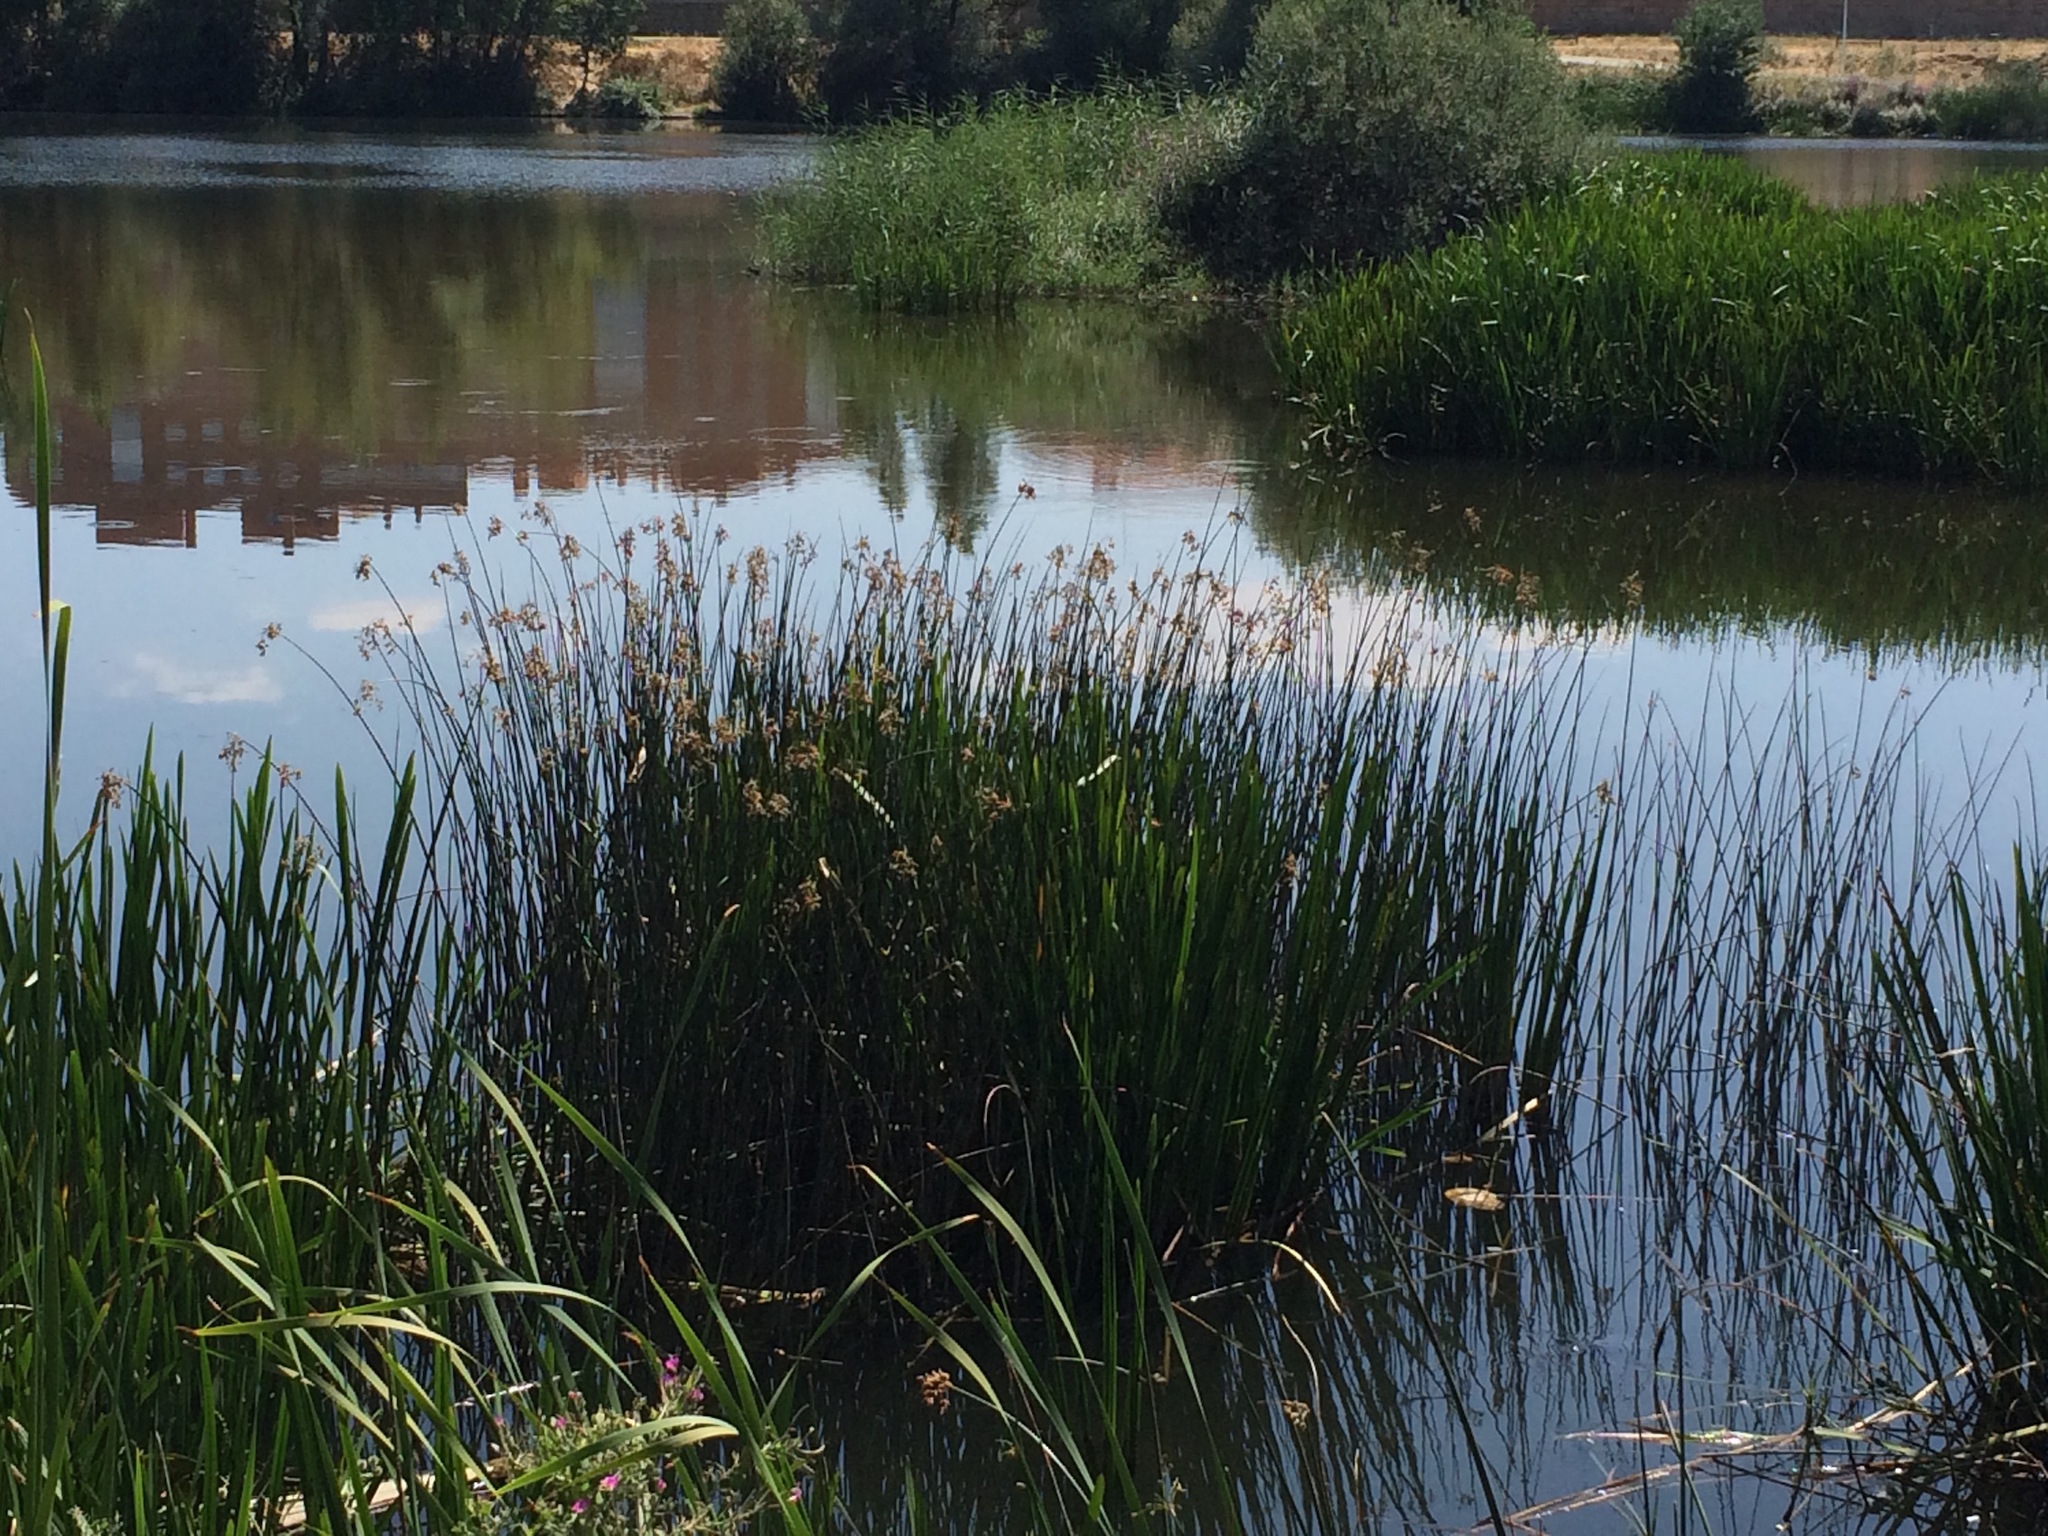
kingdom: Plantae
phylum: Tracheophyta
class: Liliopsida
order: Poales
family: Cyperaceae
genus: Schoenoplectus
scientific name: Schoenoplectus tabernaemontani
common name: Grey club-rush
